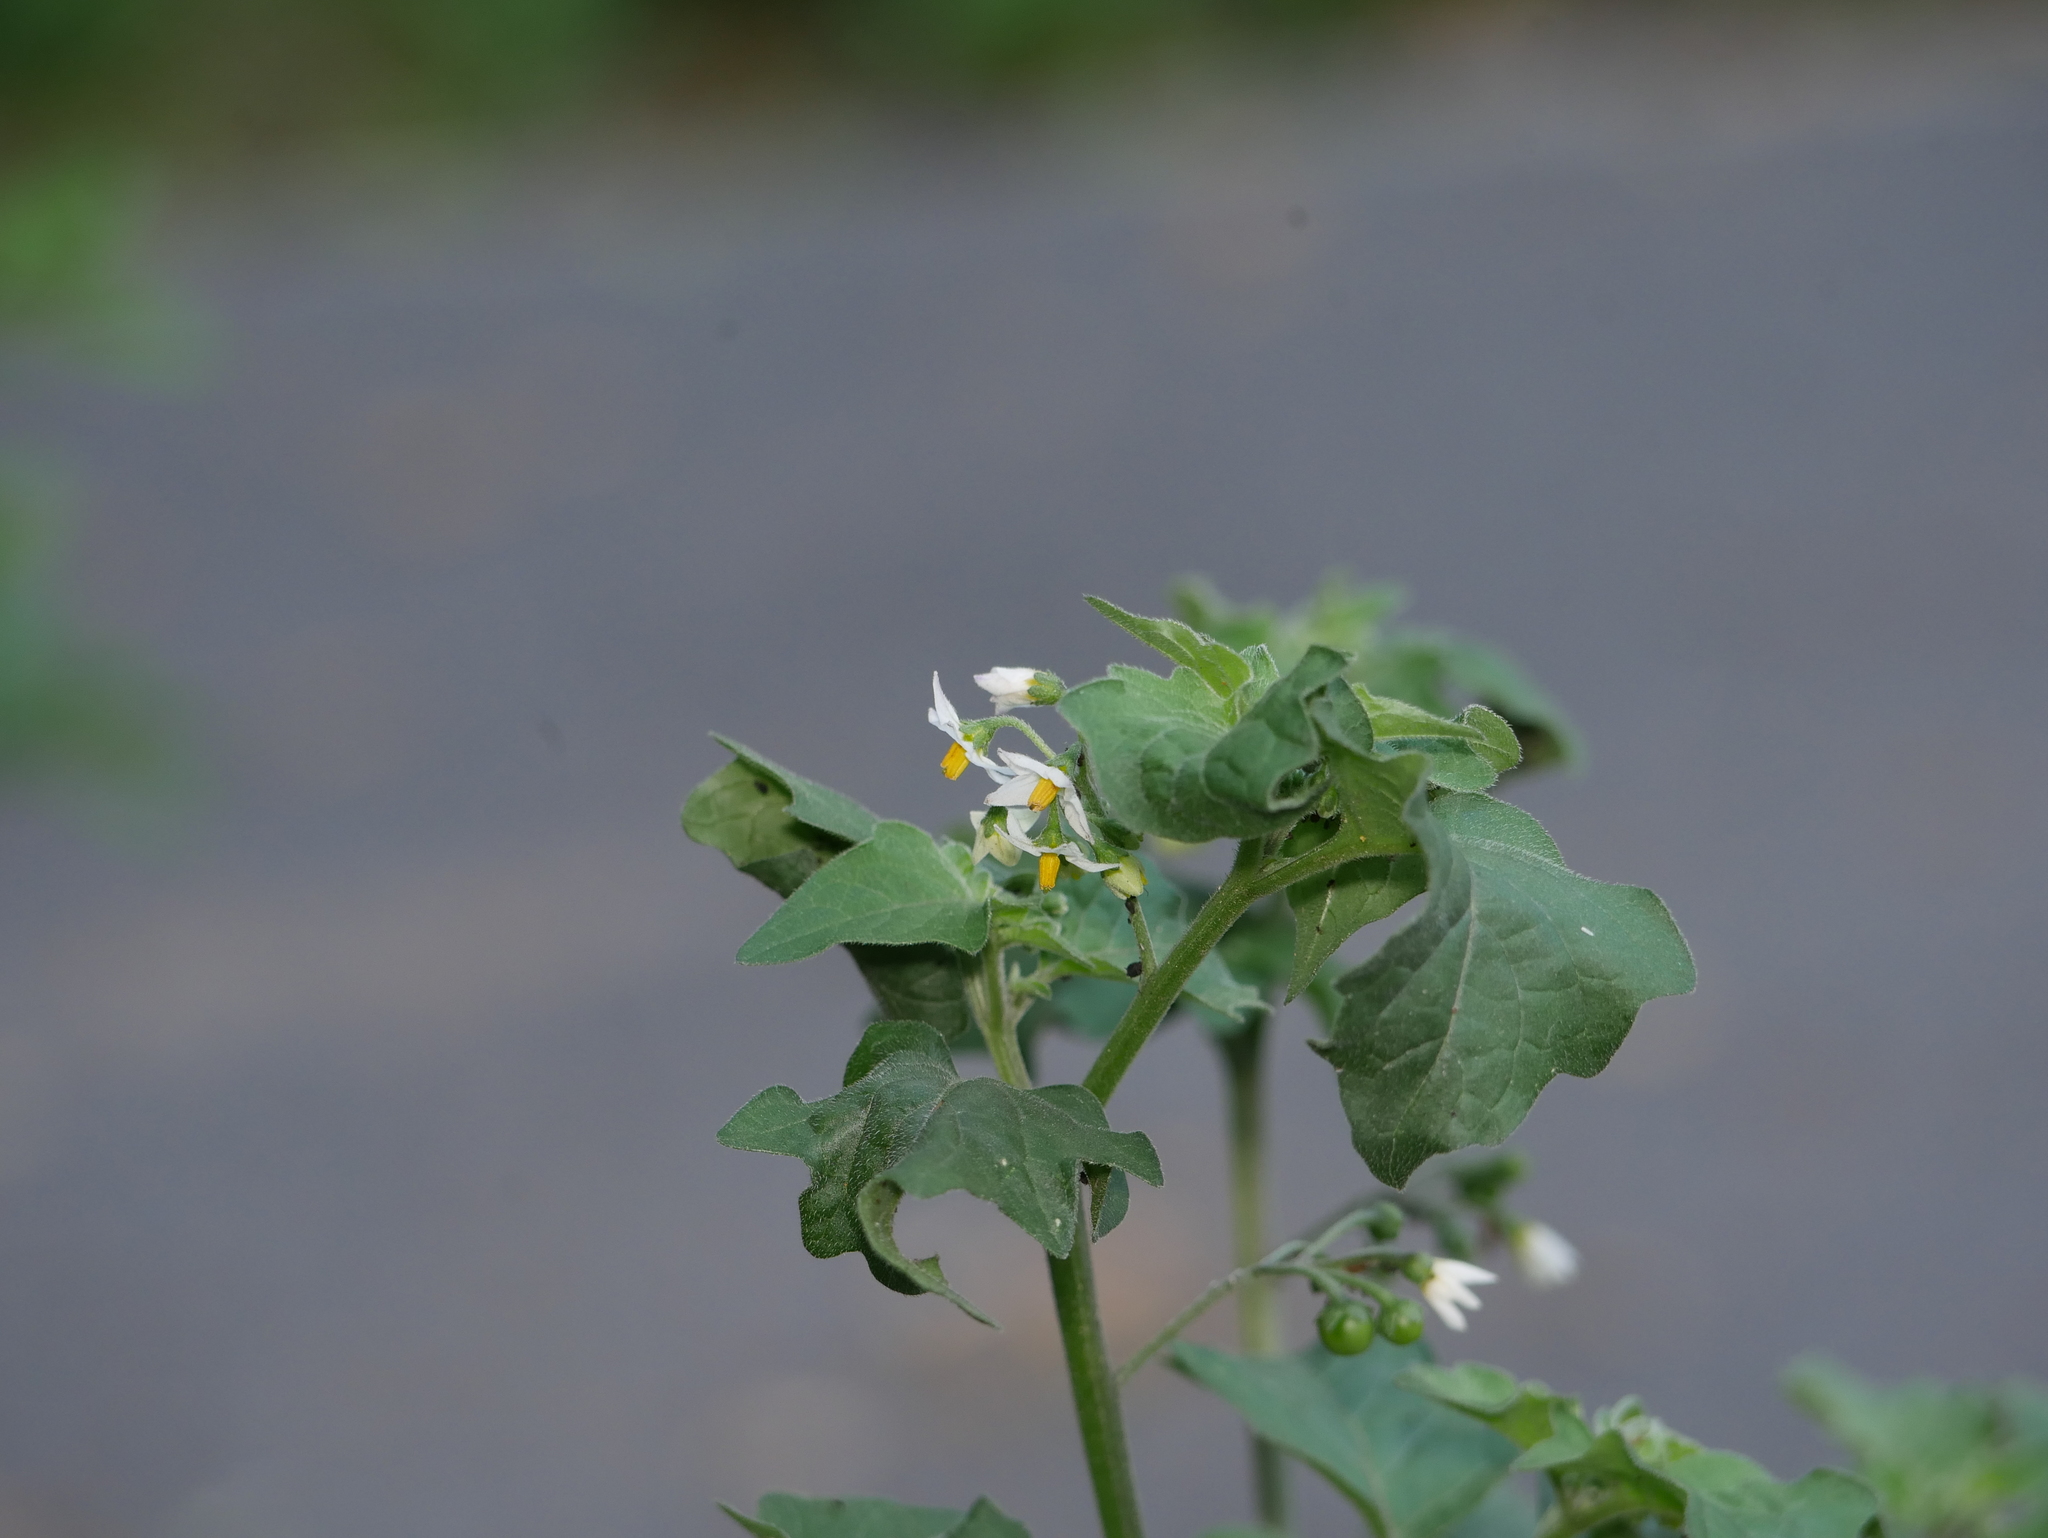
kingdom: Plantae
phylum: Tracheophyta
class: Magnoliopsida
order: Solanales
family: Solanaceae
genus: Solanum
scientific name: Solanum nigrum
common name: Black nightshade
